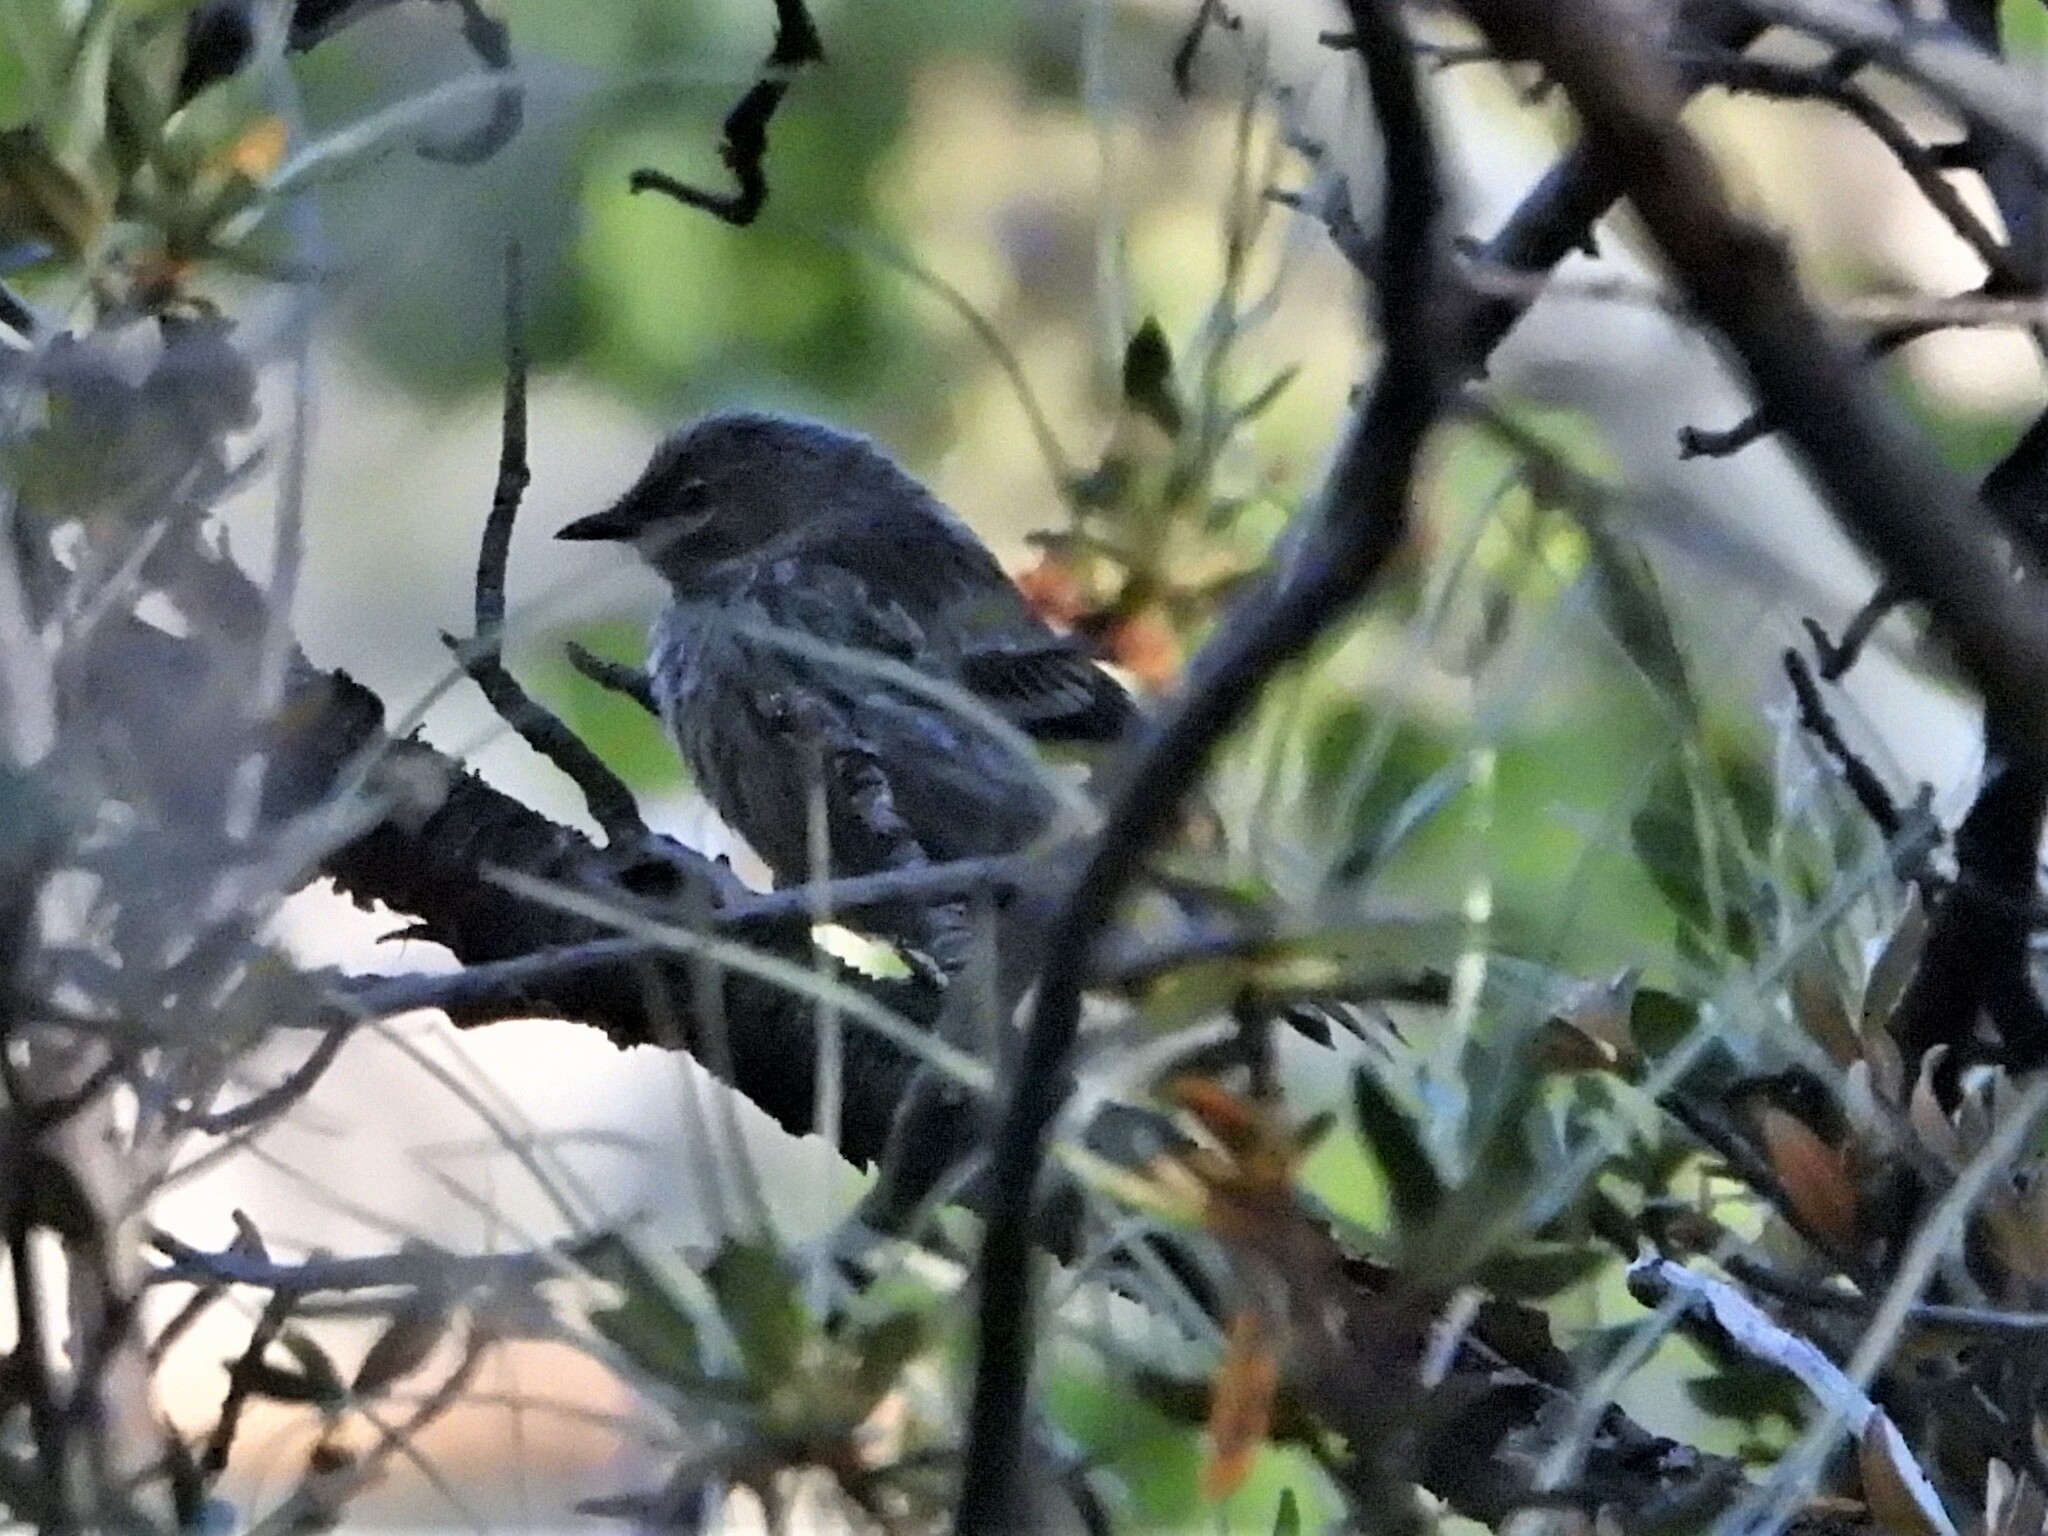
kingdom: Animalia
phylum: Chordata
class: Aves
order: Passeriformes
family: Parulidae
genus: Setophaga
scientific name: Setophaga coronata
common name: Myrtle warbler
